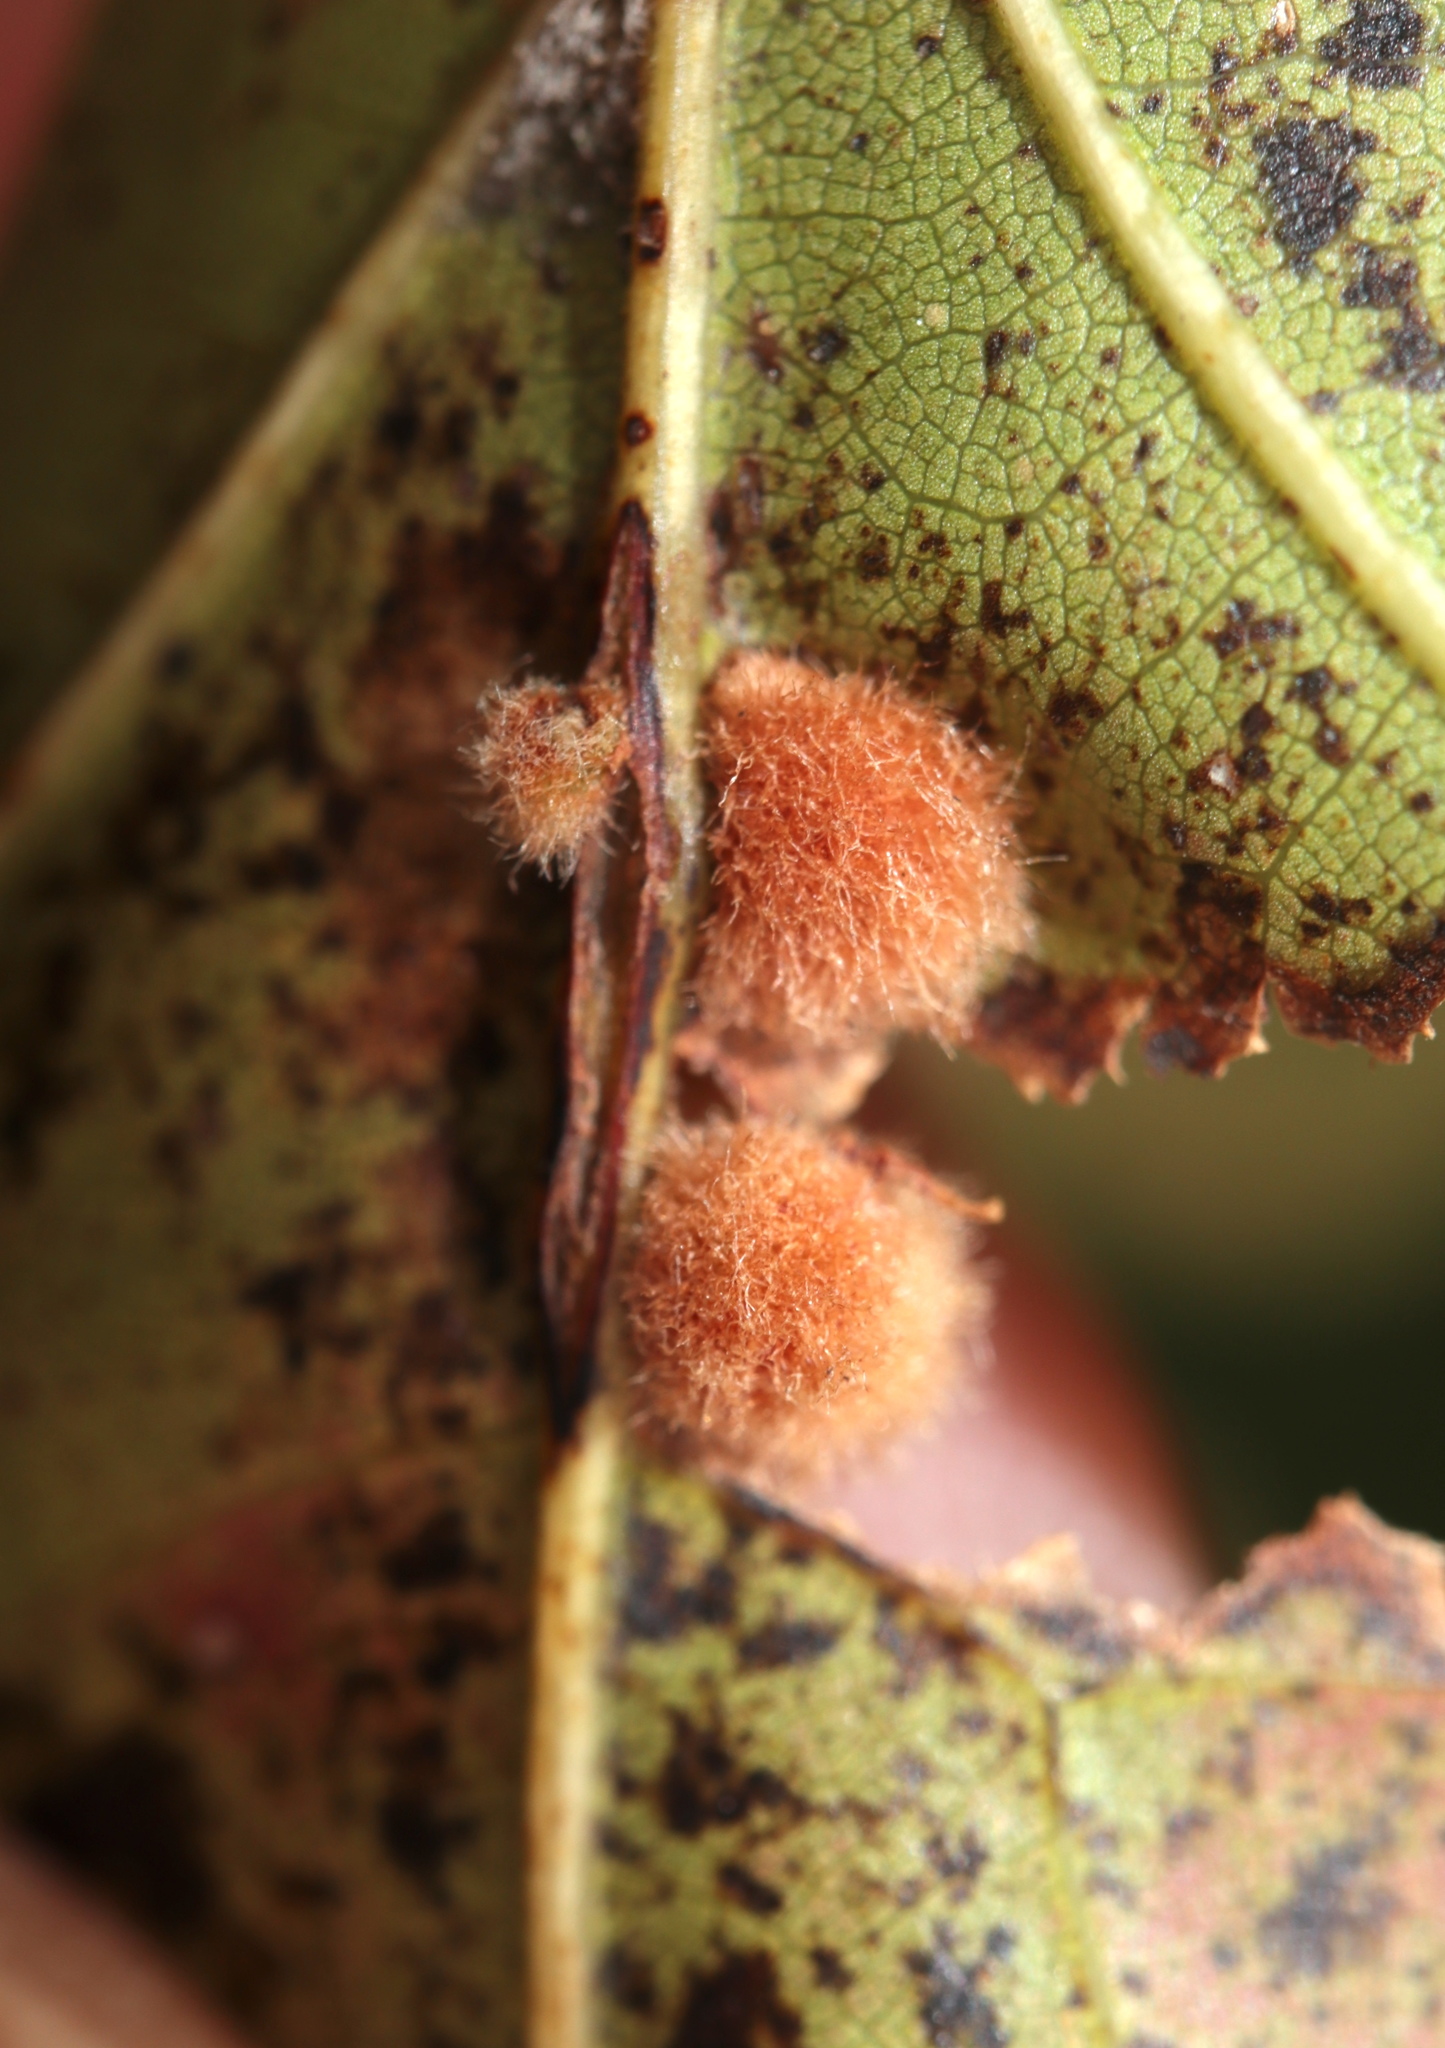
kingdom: Animalia
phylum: Arthropoda
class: Insecta
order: Hymenoptera
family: Cynipidae
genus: Callirhytis
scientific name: Callirhytis
